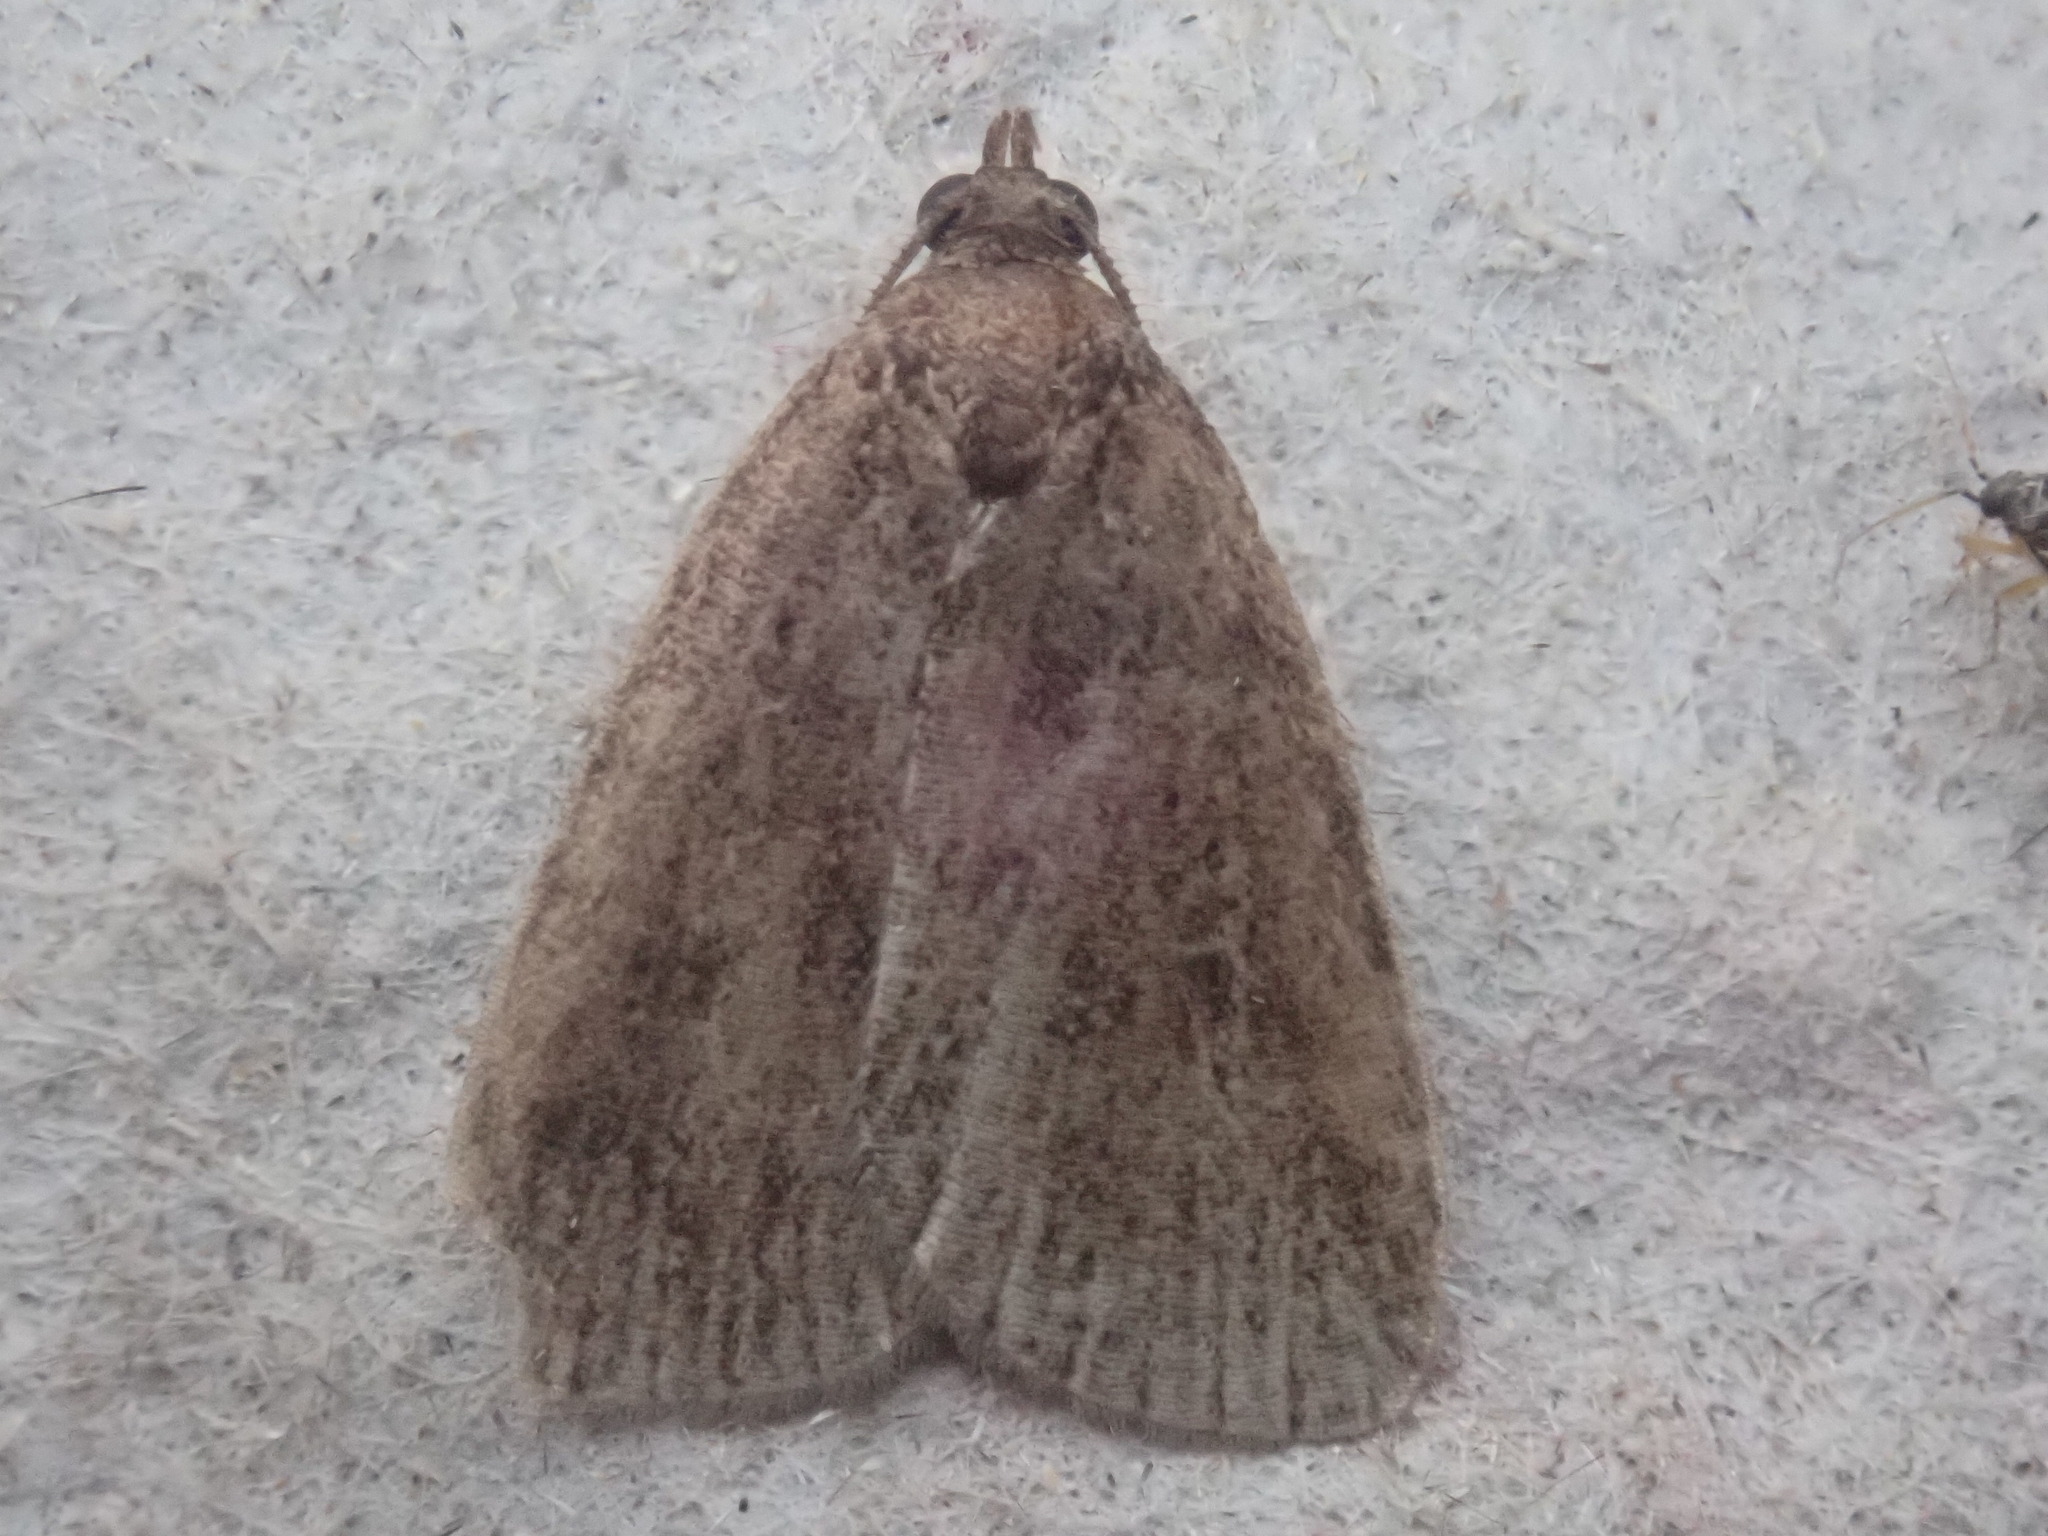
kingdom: Animalia
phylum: Arthropoda
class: Insecta
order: Lepidoptera
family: Erebidae
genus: Idia
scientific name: Idia rotundalis
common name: Rotund idia moth
